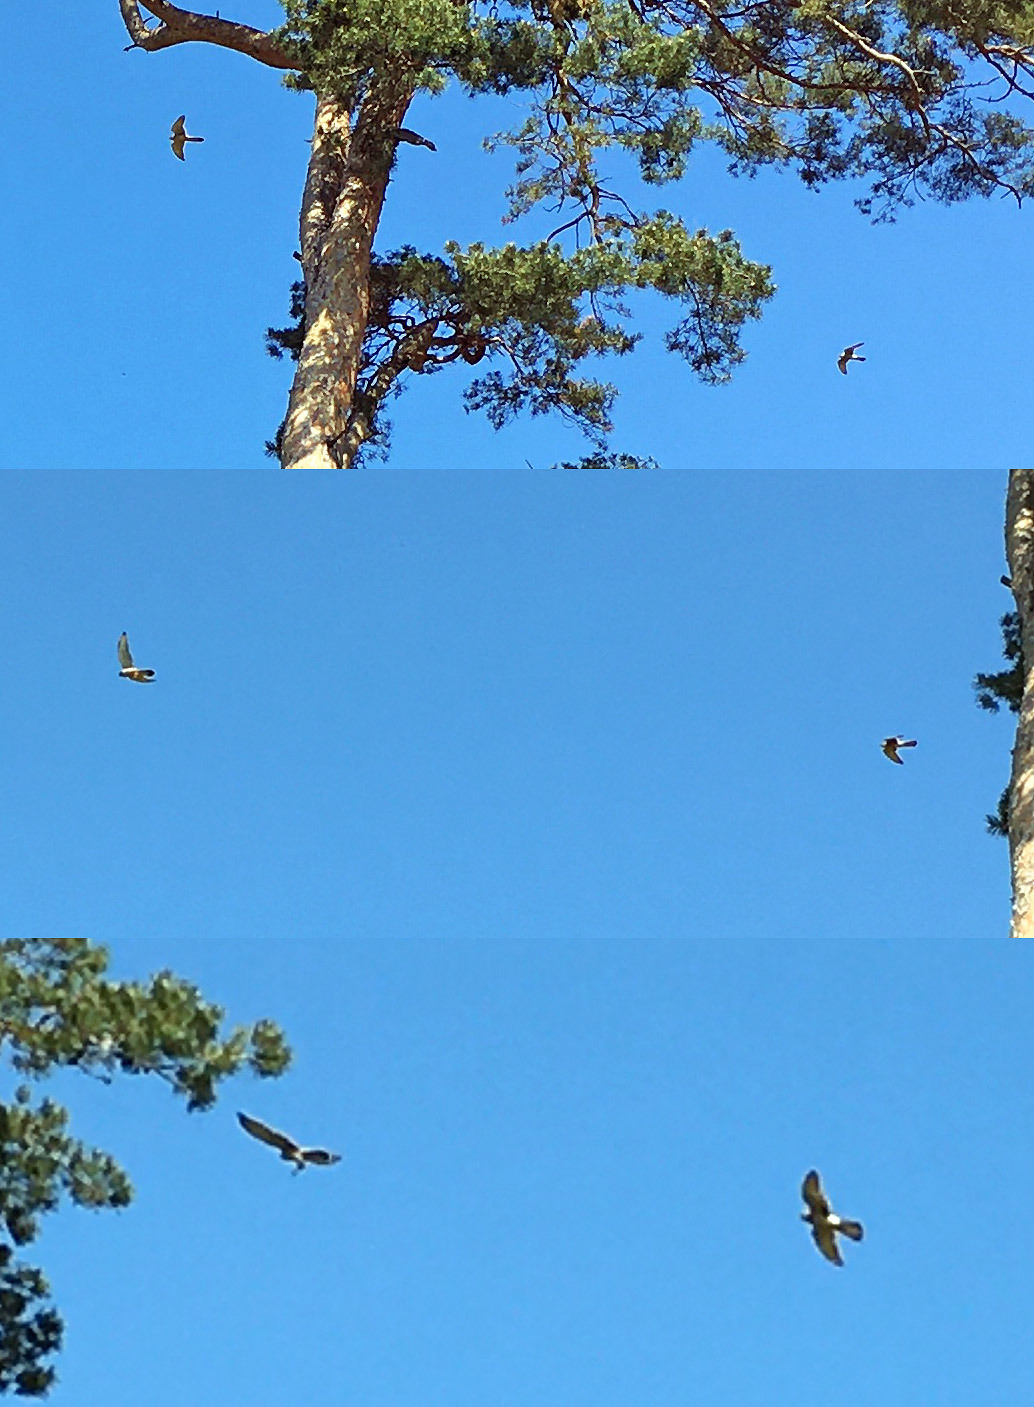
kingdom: Animalia
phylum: Chordata
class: Aves
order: Falconiformes
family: Falconidae
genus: Falco
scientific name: Falco tinnunculus
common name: Common kestrel
